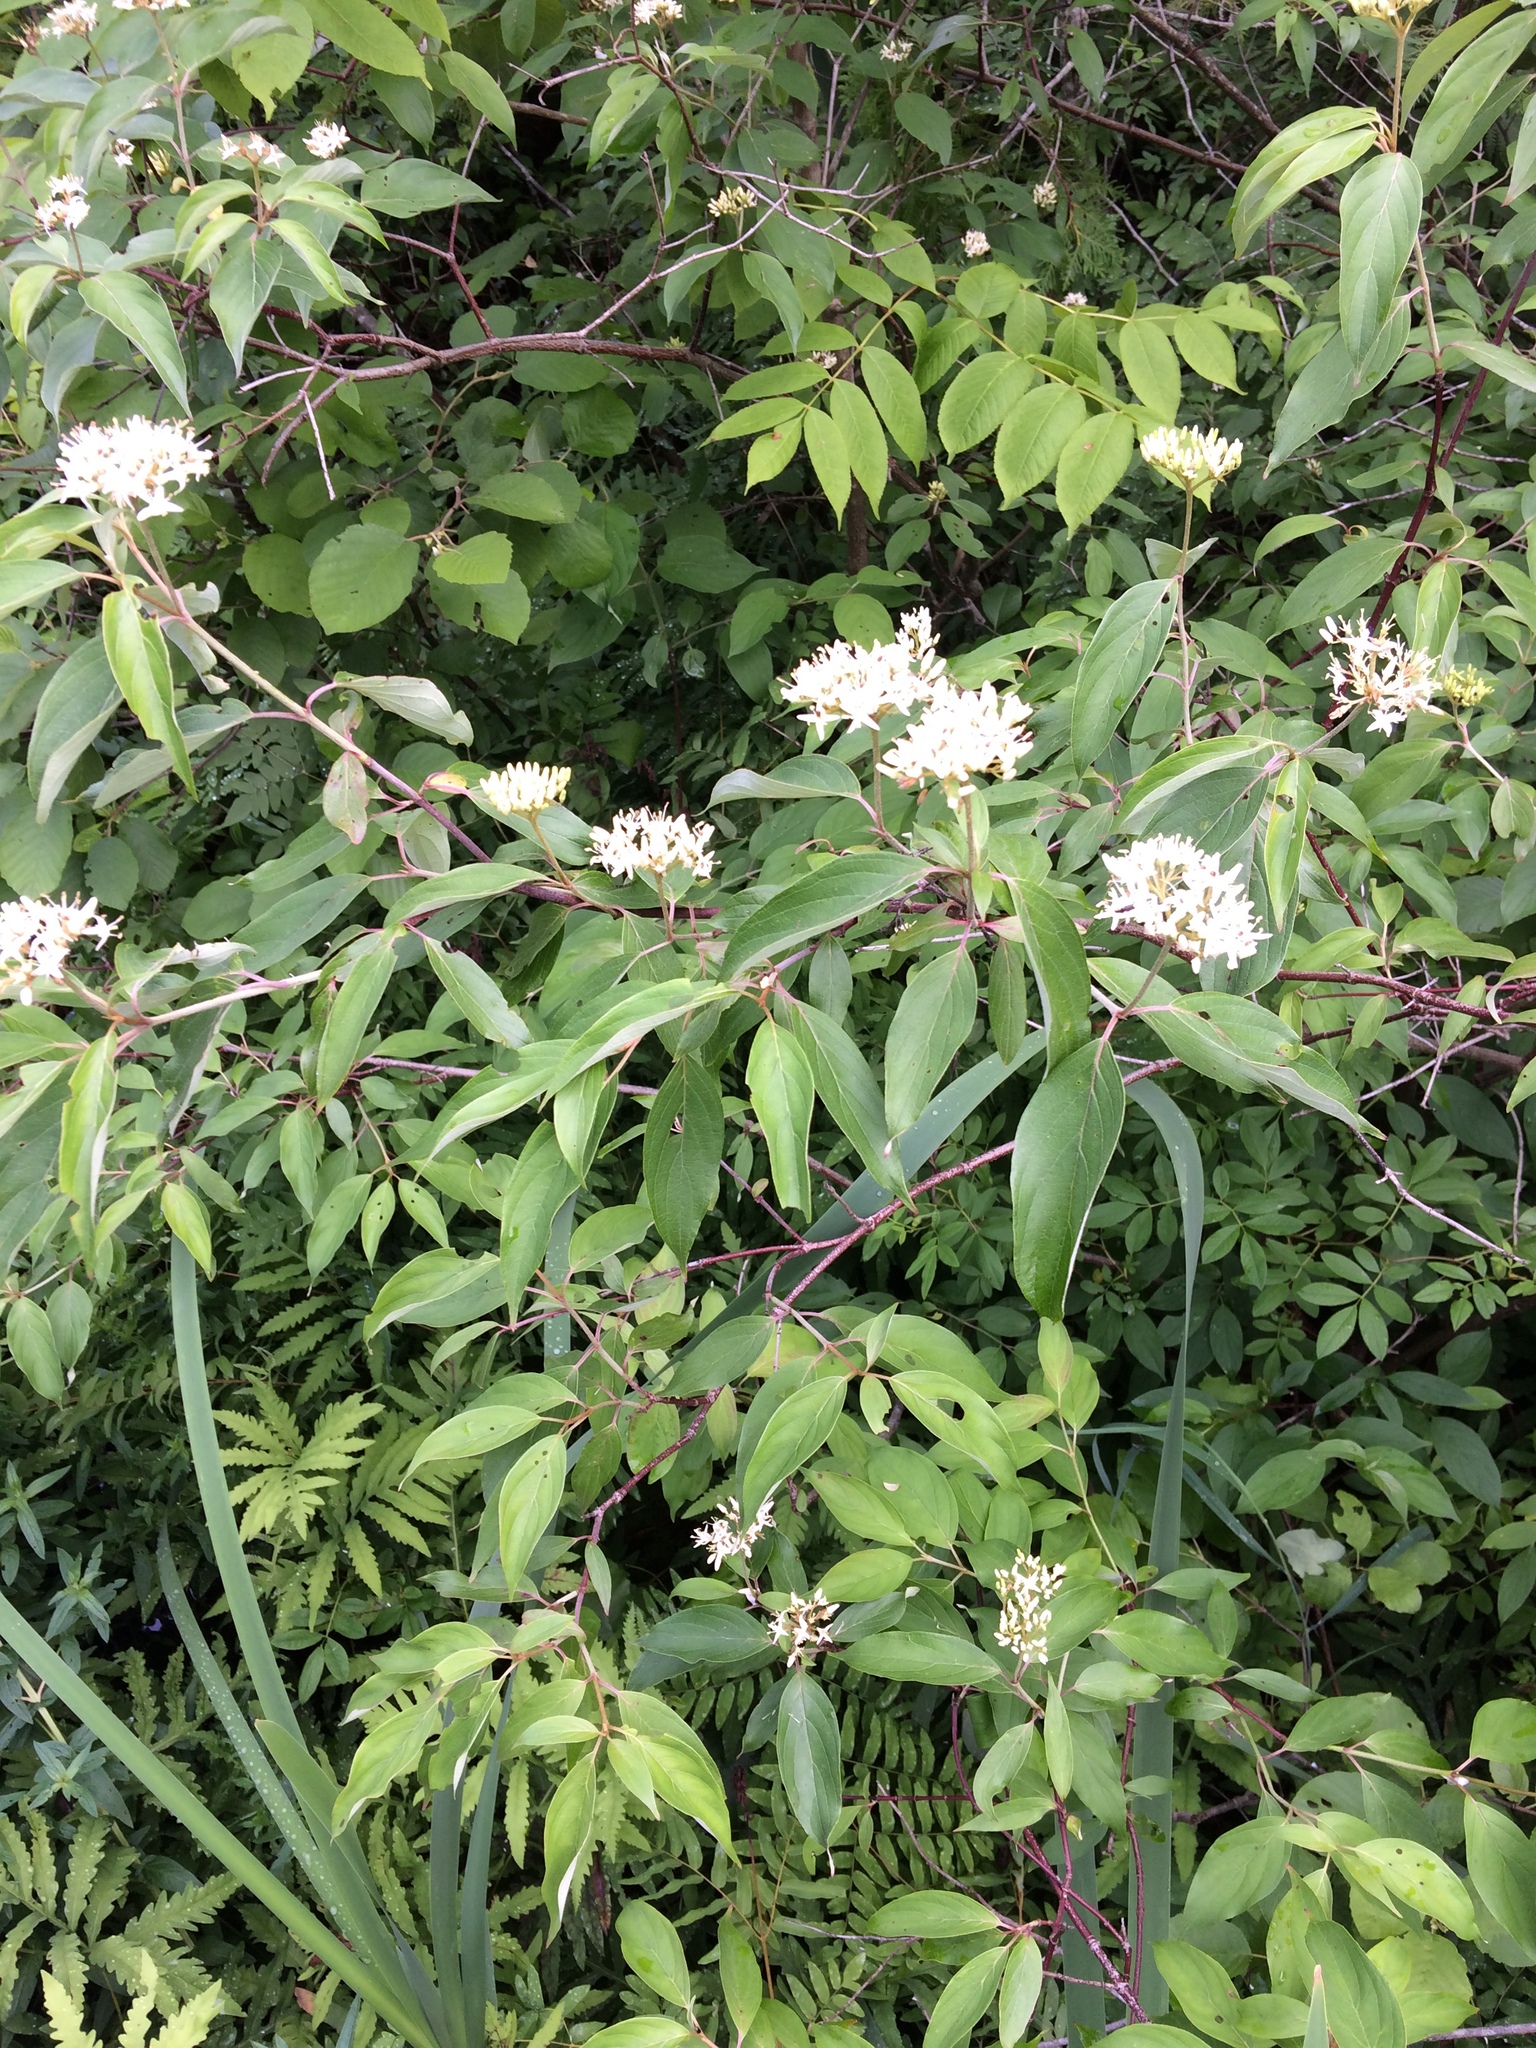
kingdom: Plantae
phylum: Tracheophyta
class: Magnoliopsida
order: Cornales
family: Cornaceae
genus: Cornus
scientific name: Cornus amomum
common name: Silky dogwood
